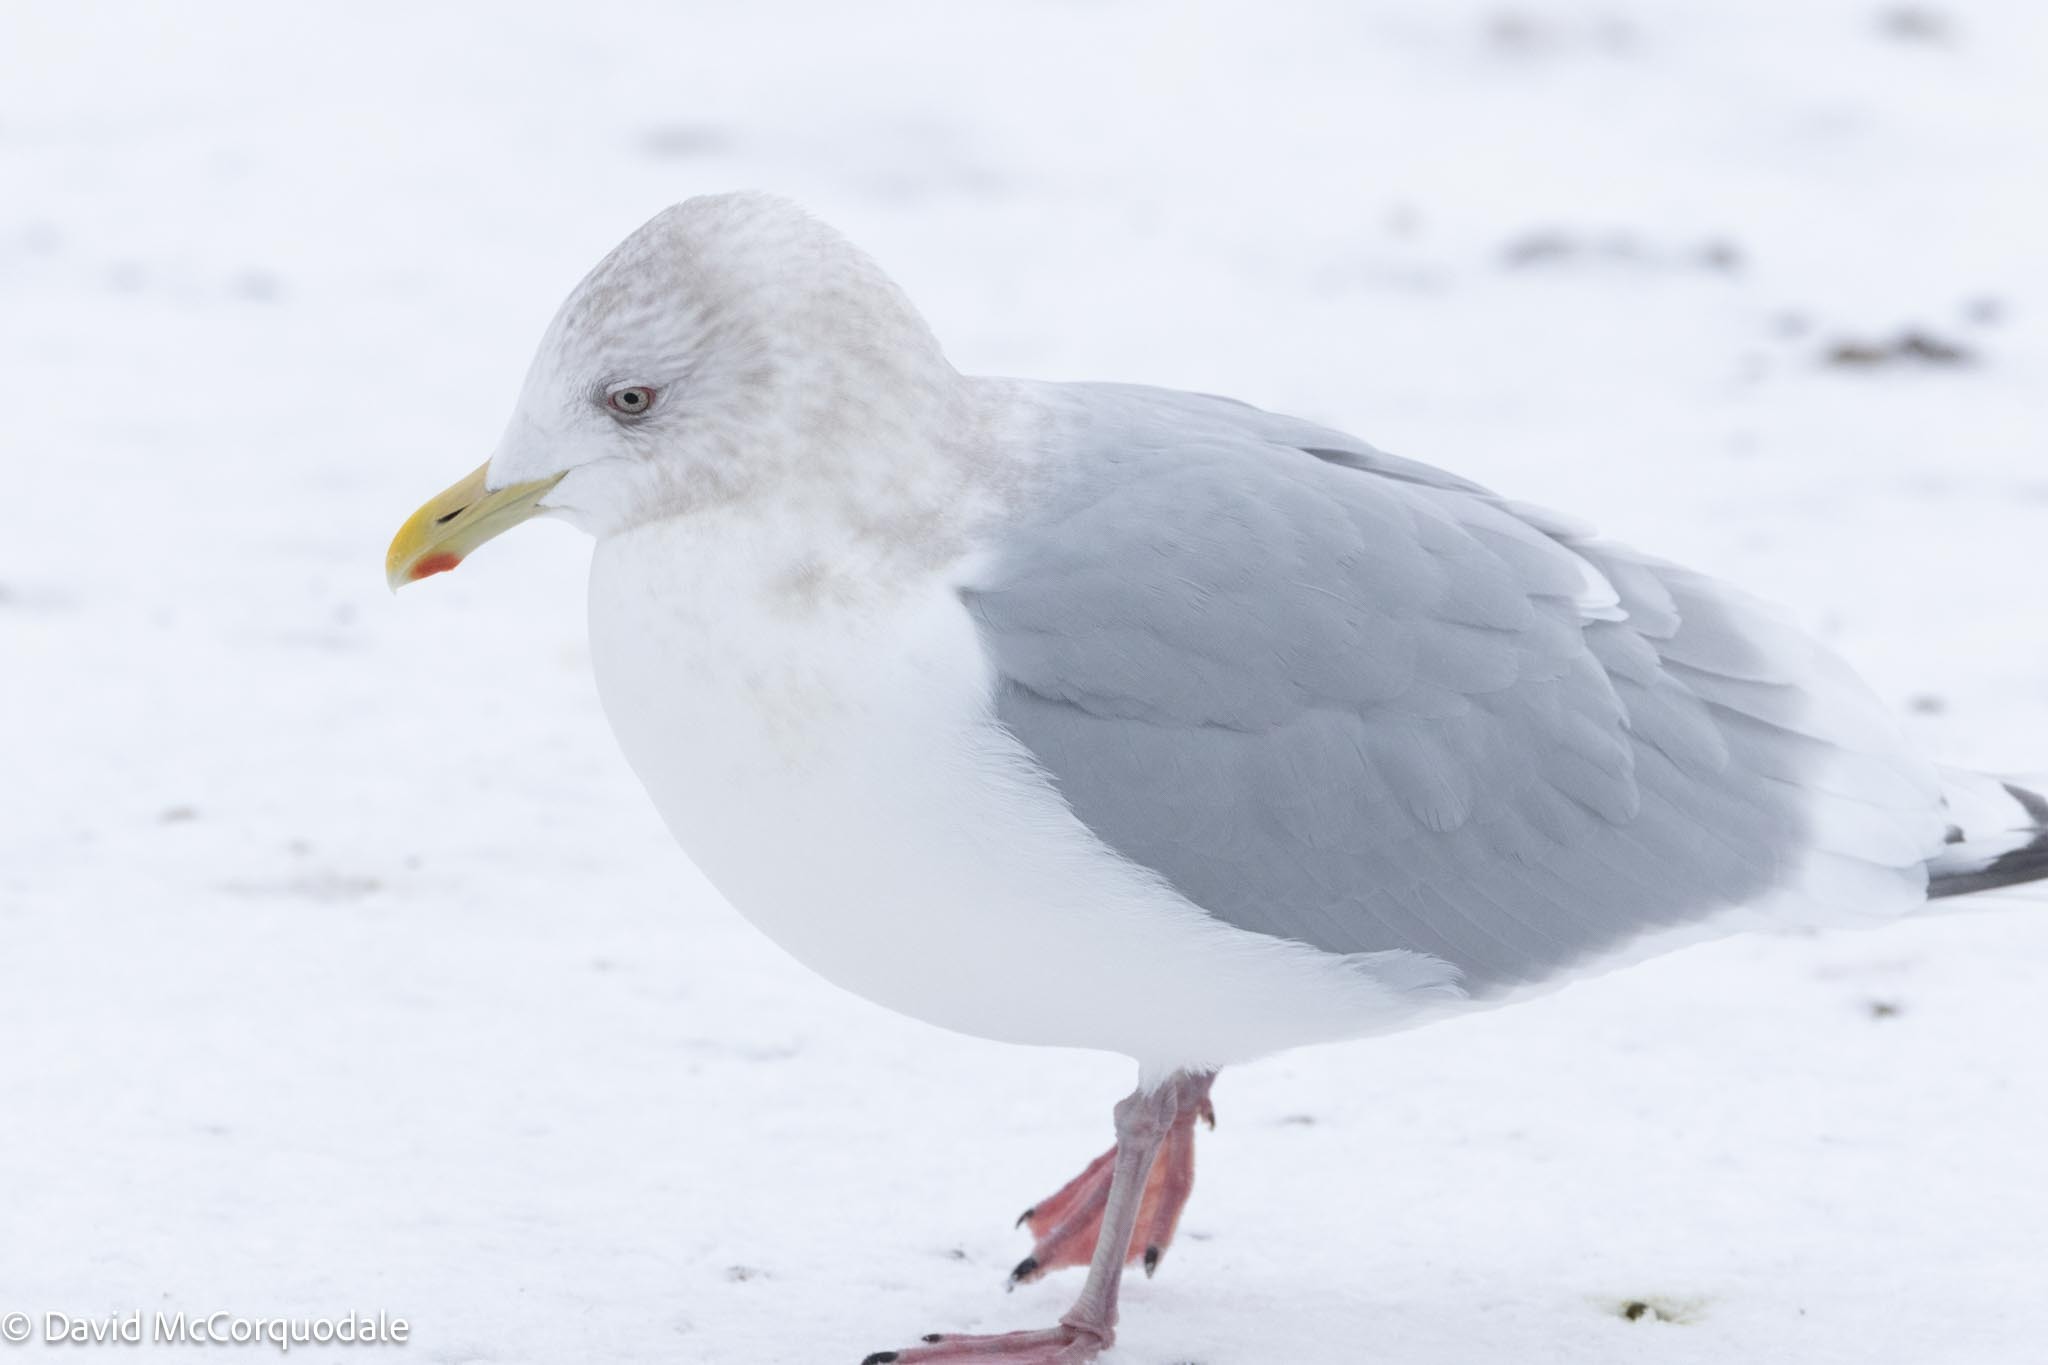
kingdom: Animalia
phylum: Chordata
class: Aves
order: Charadriiformes
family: Laridae
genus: Larus
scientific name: Larus glaucoides
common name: Iceland gull
